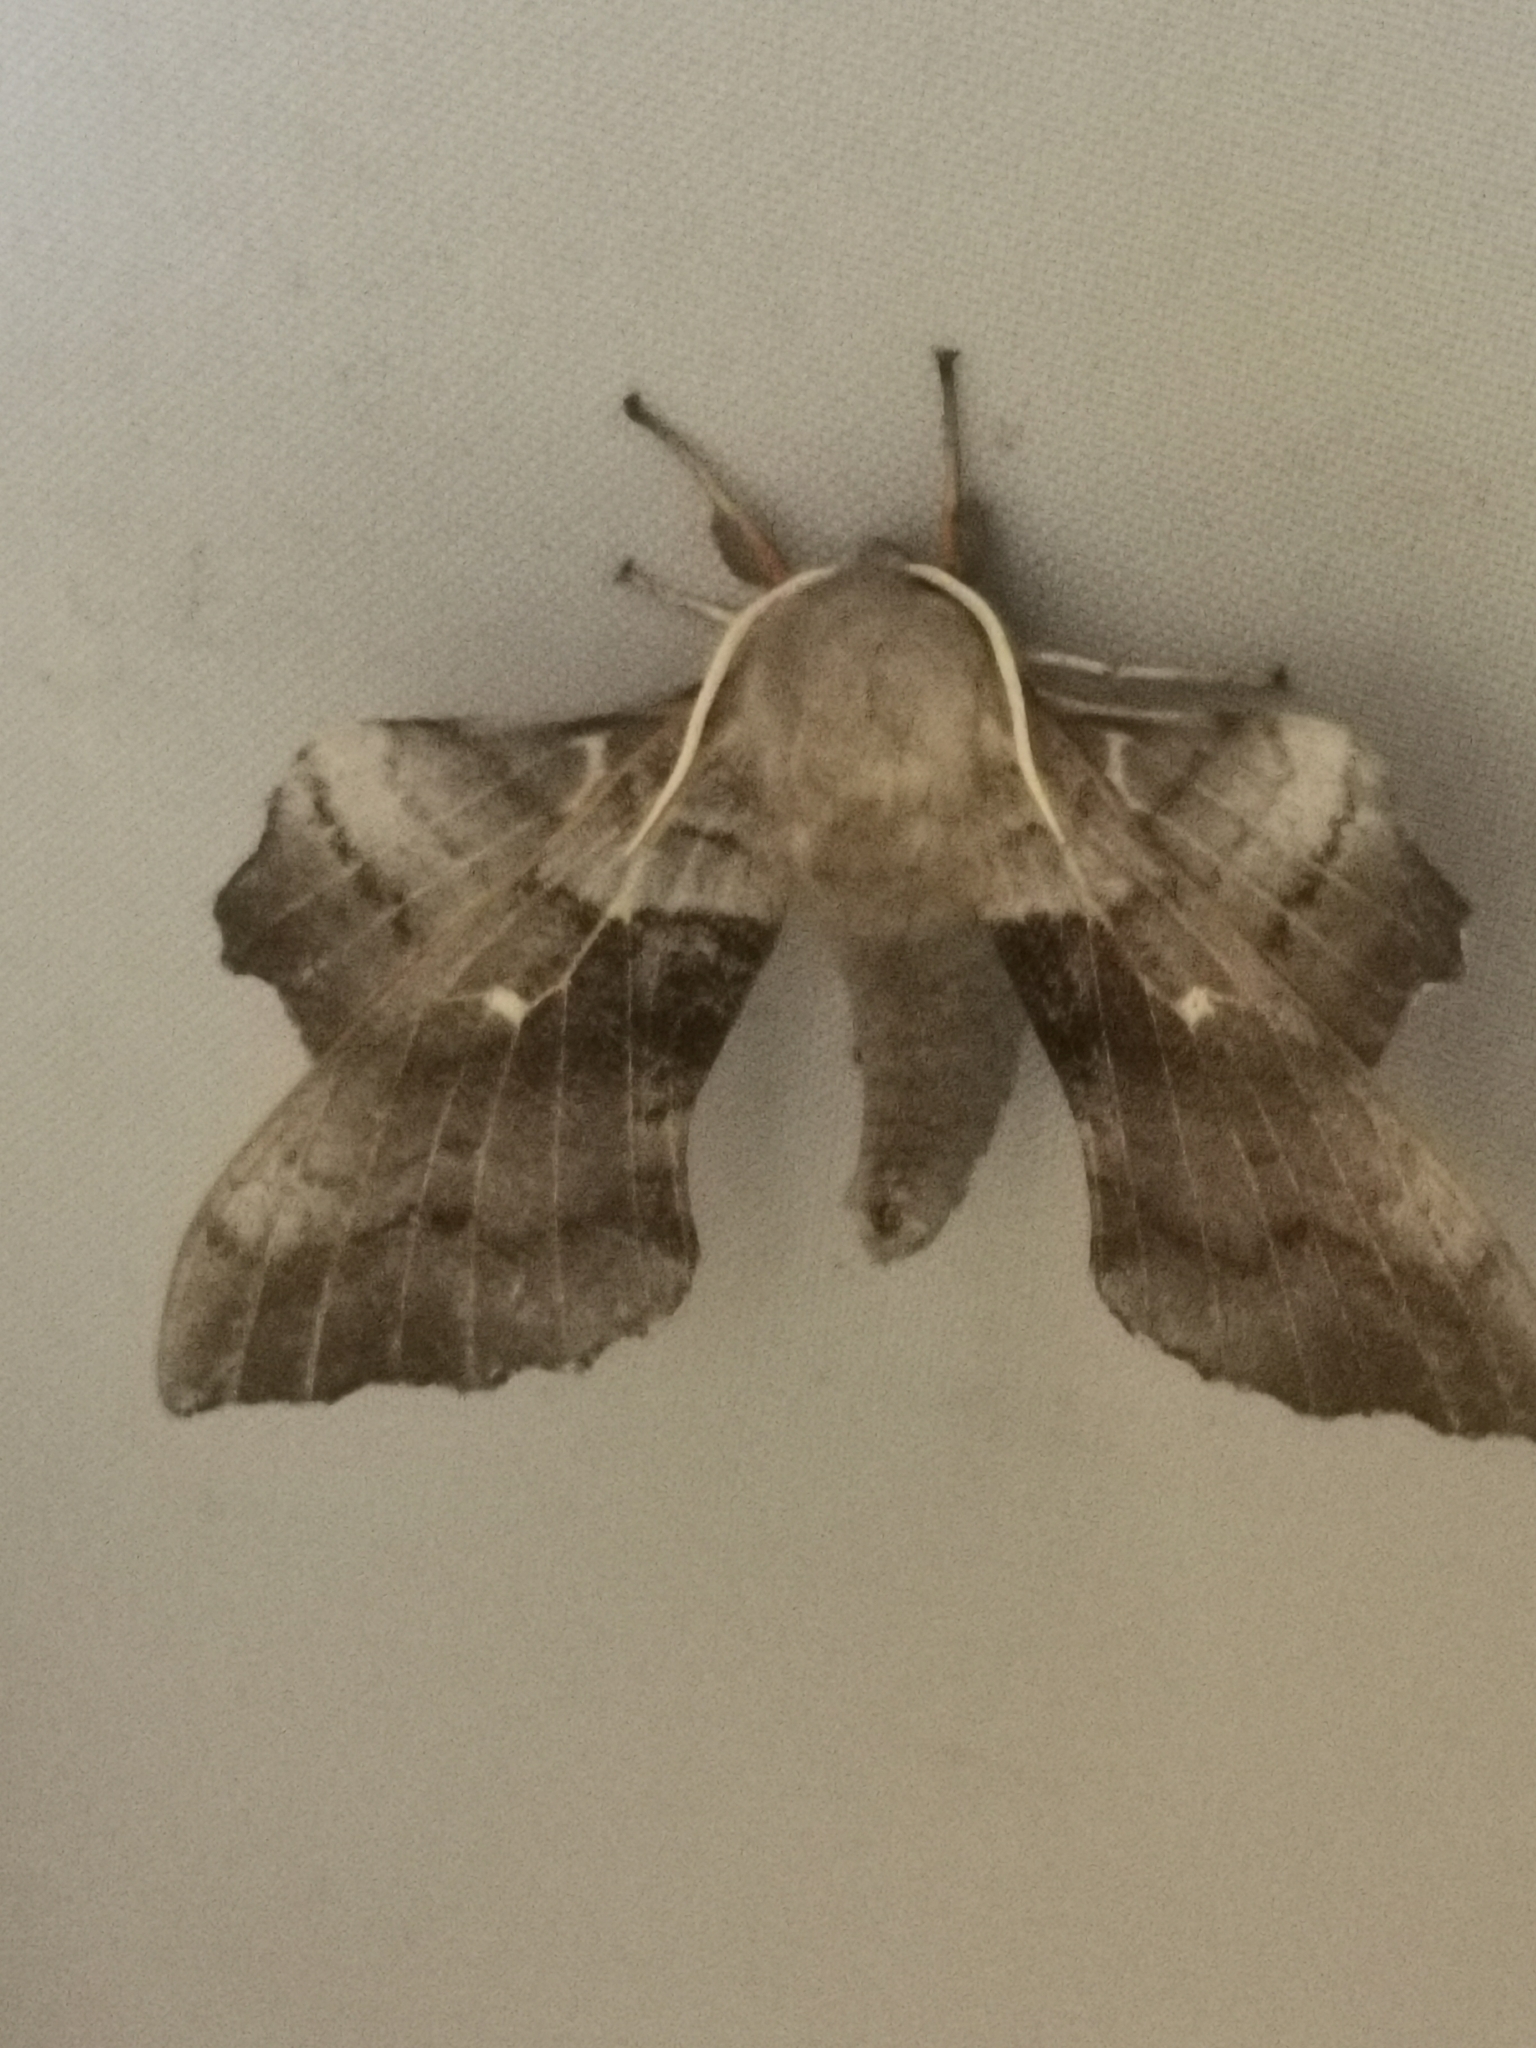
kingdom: Animalia
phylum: Arthropoda
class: Insecta
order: Lepidoptera
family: Sphingidae
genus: Laothoe
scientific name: Laothoe populi
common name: Poplar hawk-moth
